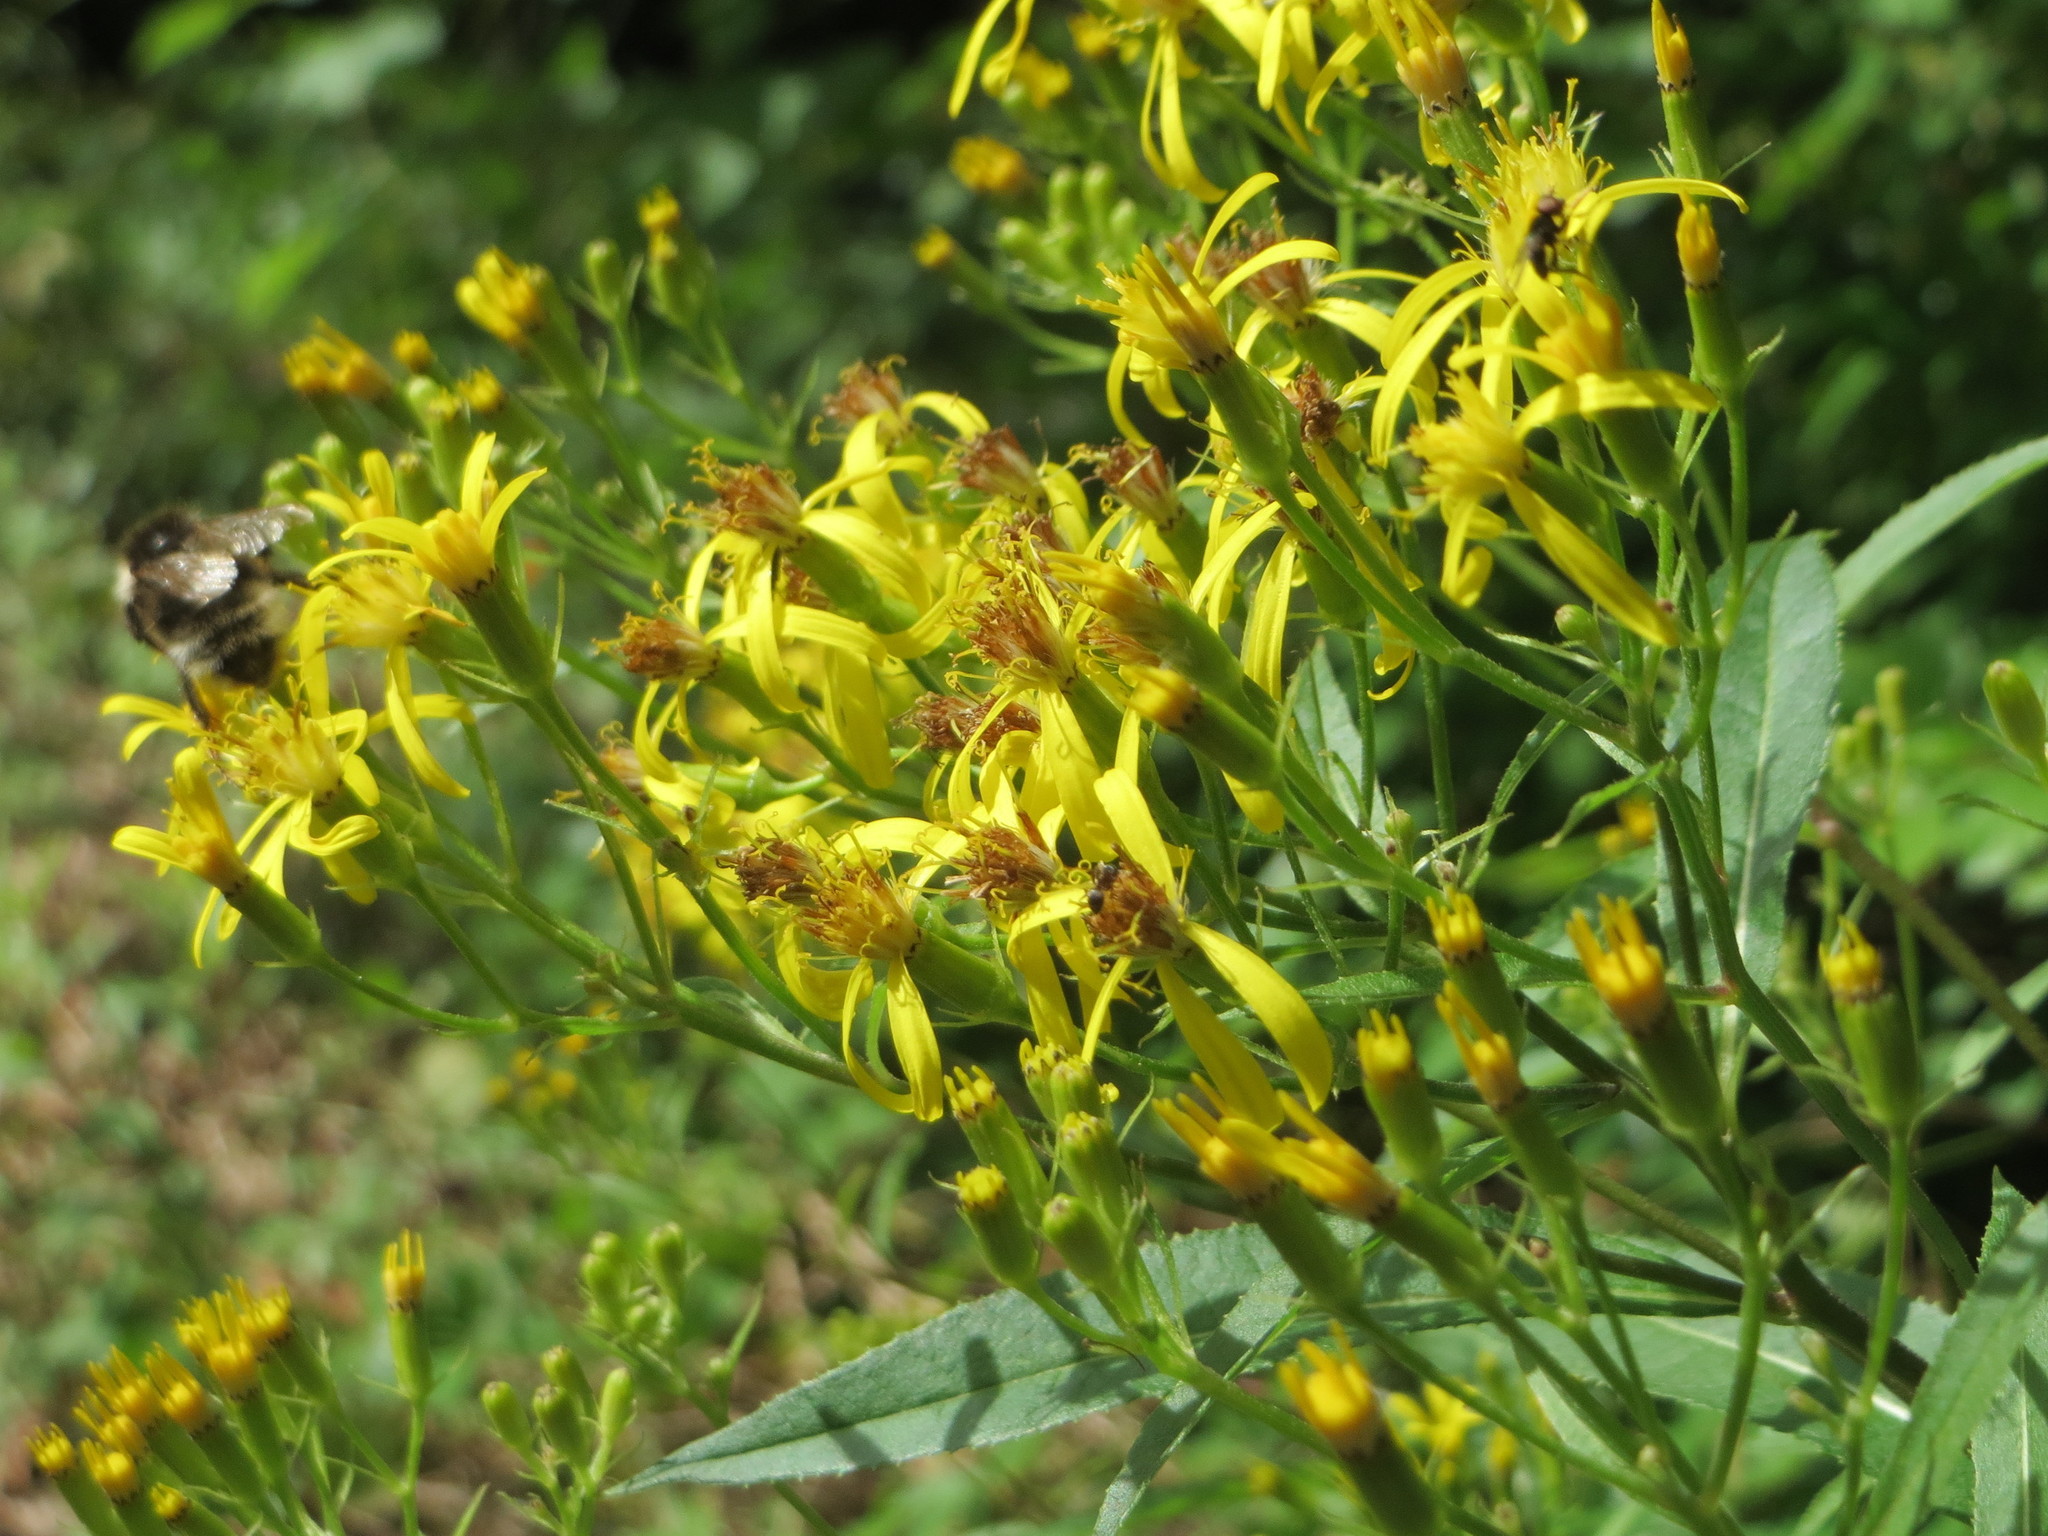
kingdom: Plantae
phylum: Tracheophyta
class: Magnoliopsida
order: Asterales
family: Asteraceae
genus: Senecio
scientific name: Senecio ovatus
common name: Wood ragwort
